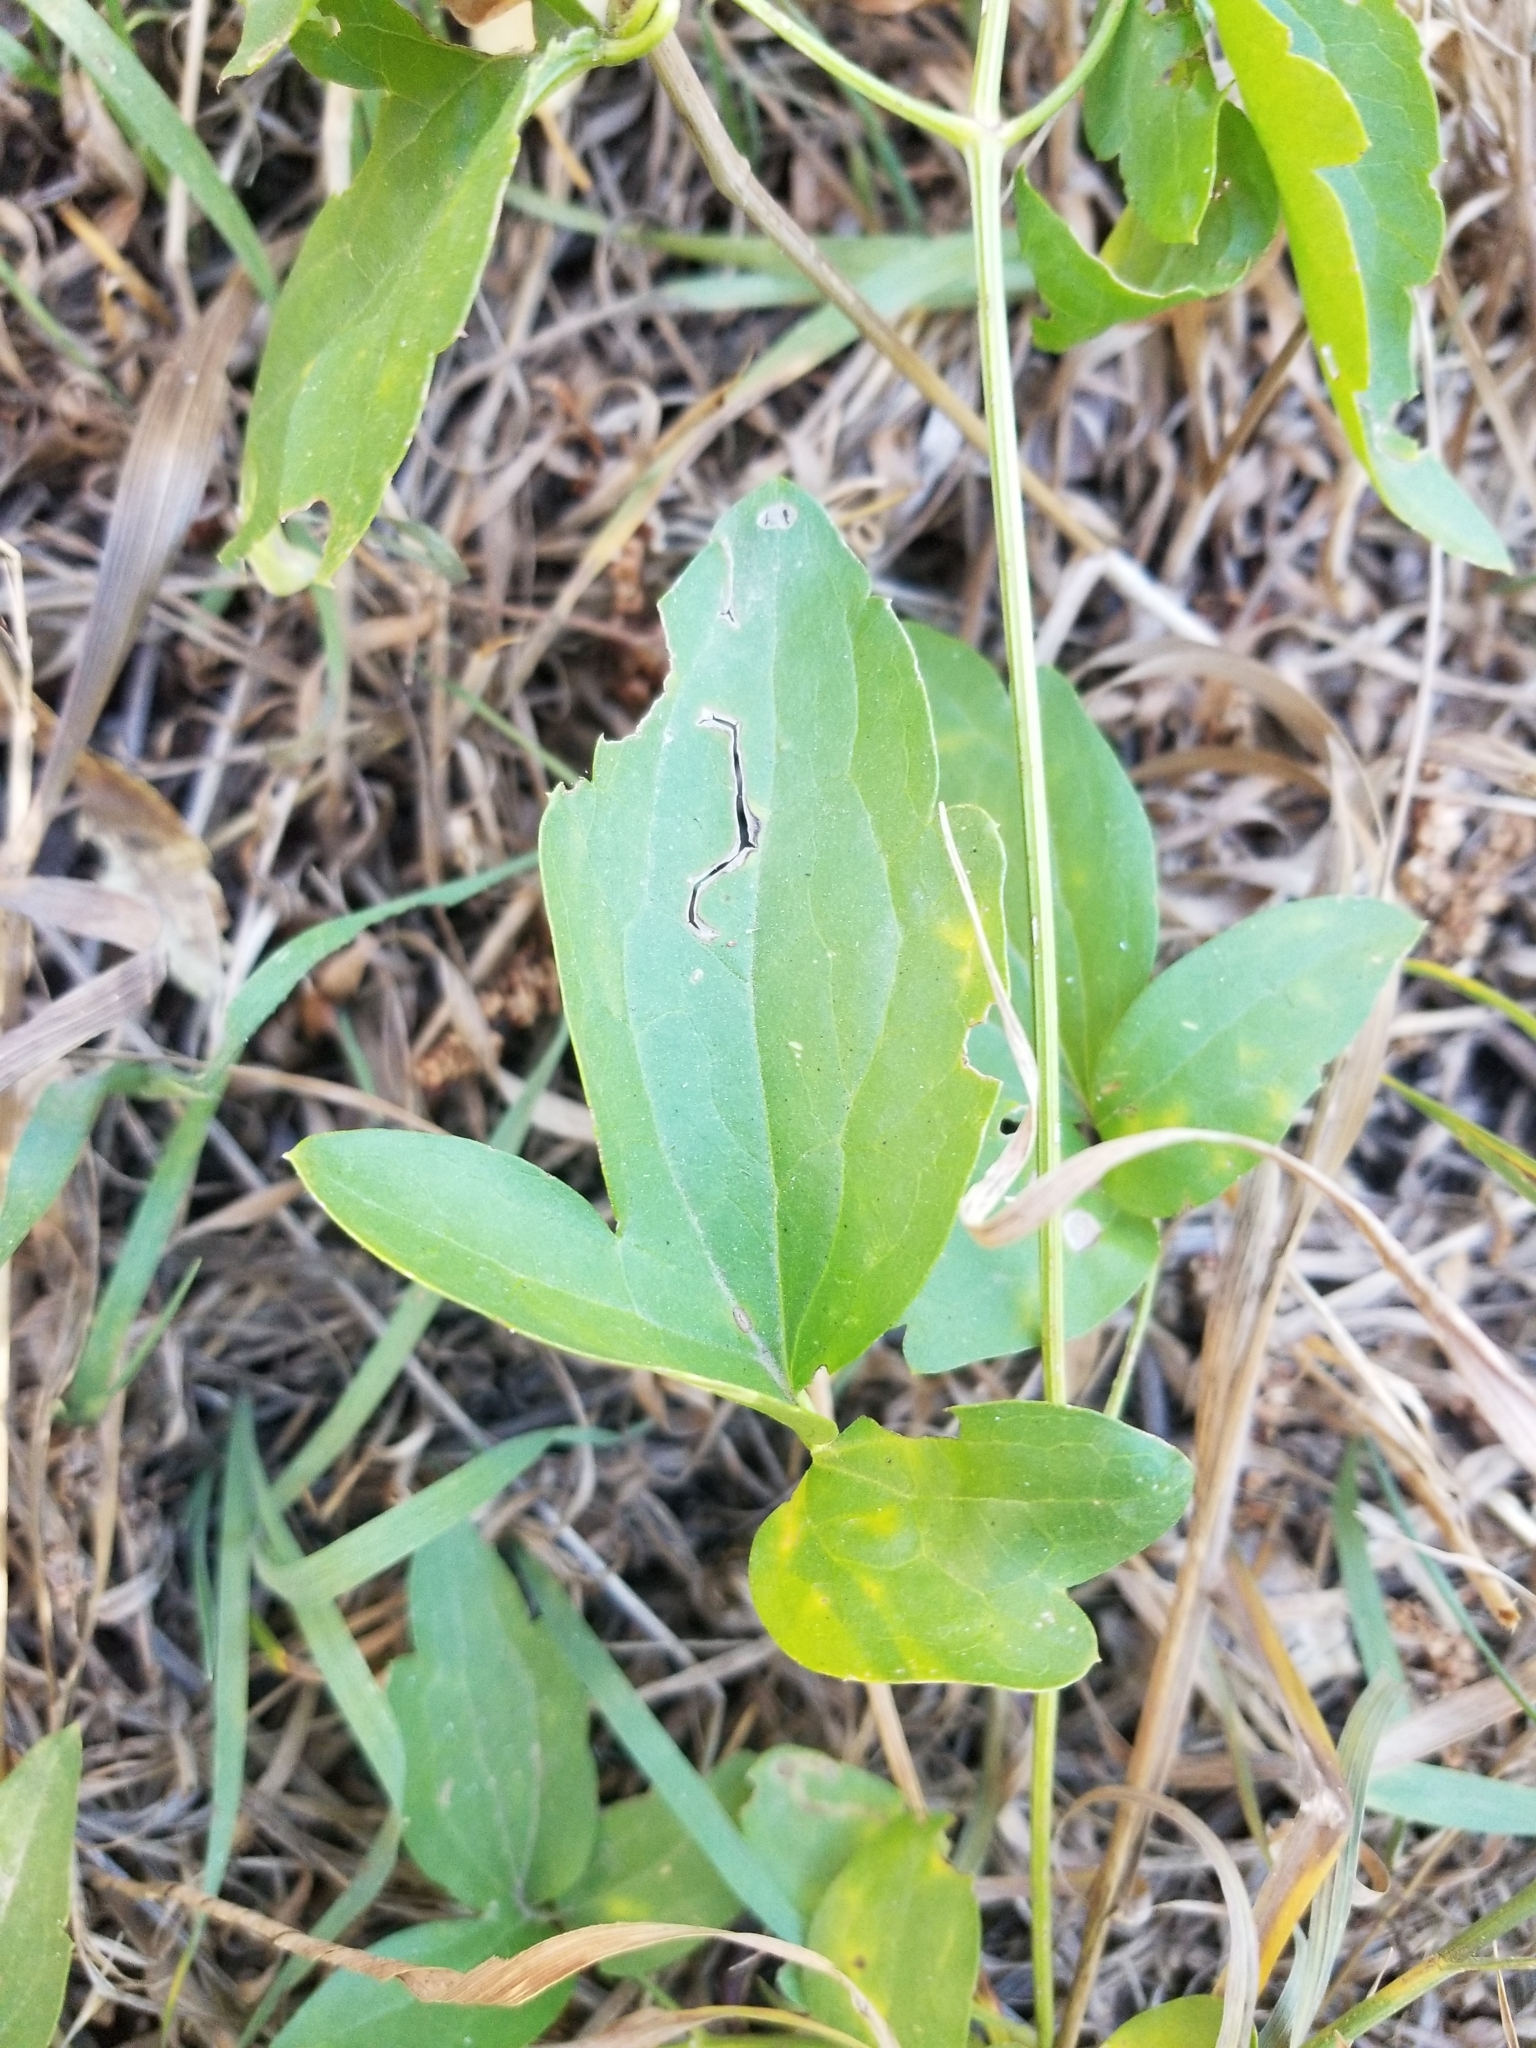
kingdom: Plantae
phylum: Tracheophyta
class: Magnoliopsida
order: Ranunculales
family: Ranunculaceae
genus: Clematis
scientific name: Clematis ligusticifolia
